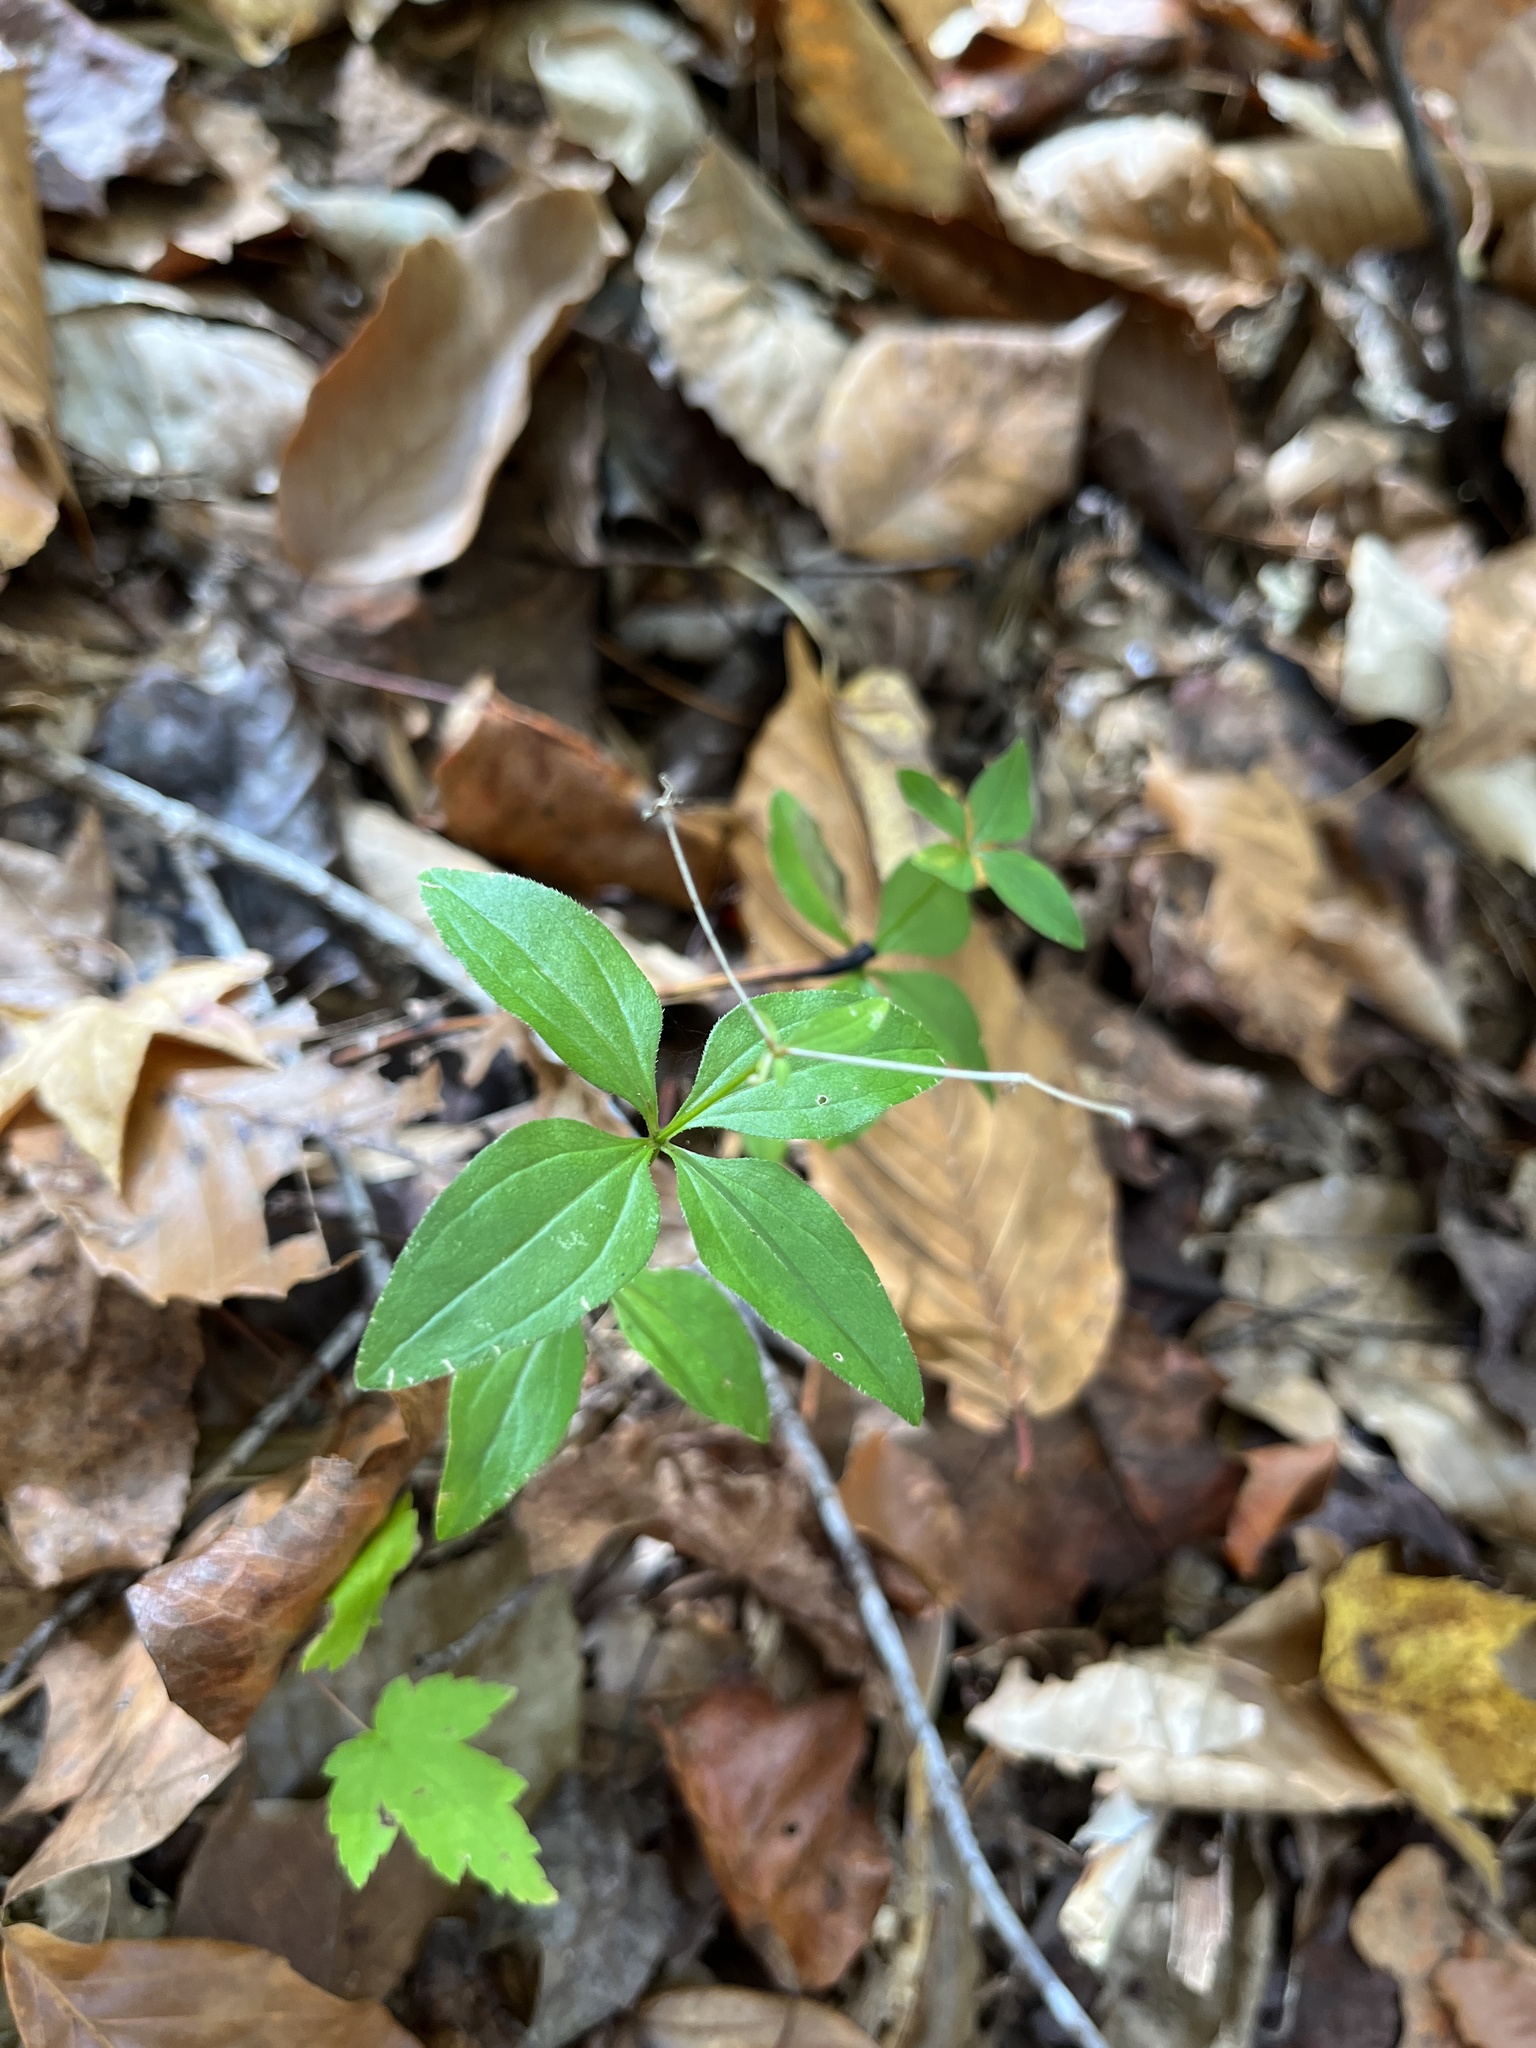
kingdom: Plantae
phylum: Tracheophyta
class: Magnoliopsida
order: Gentianales
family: Rubiaceae
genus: Galium
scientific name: Galium circaezans
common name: Forest bedstraw
